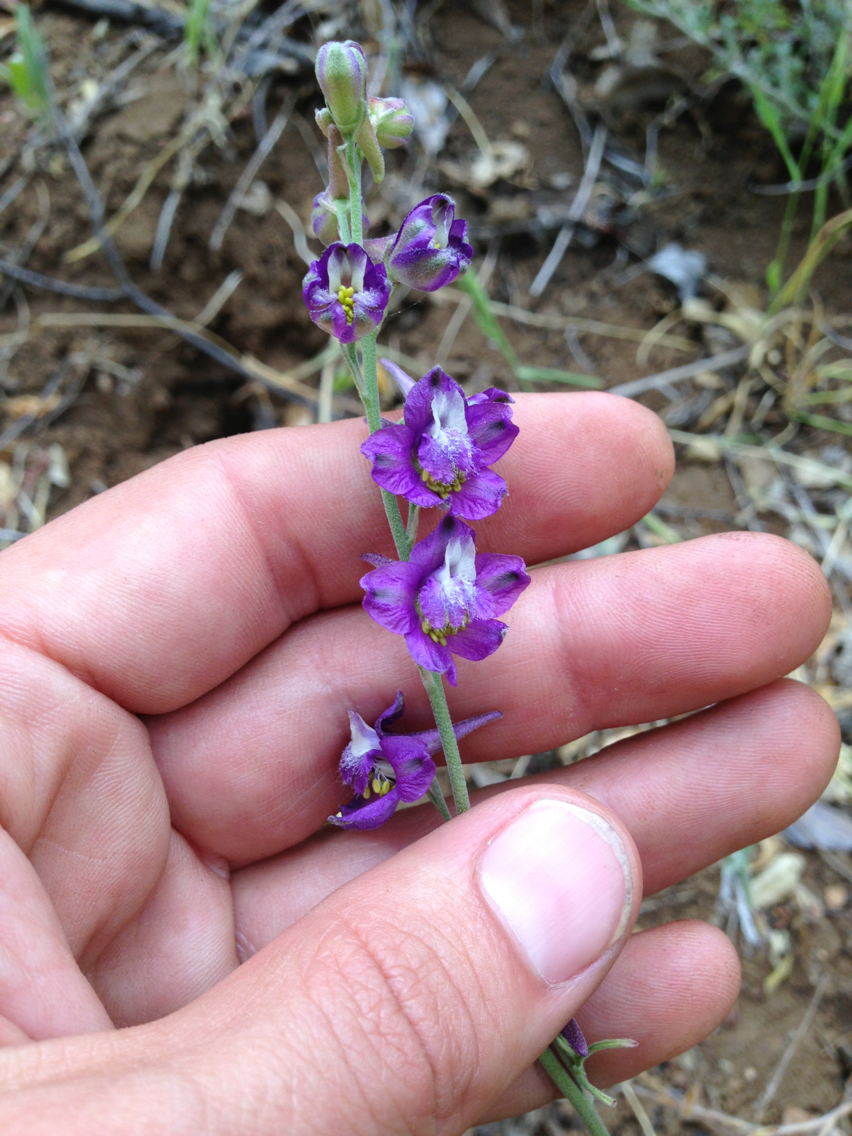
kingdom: Plantae
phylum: Tracheophyta
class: Magnoliopsida
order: Ranunculales
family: Ranunculaceae
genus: Delphinium
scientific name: Delphinium hesperium
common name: Western larkspur
